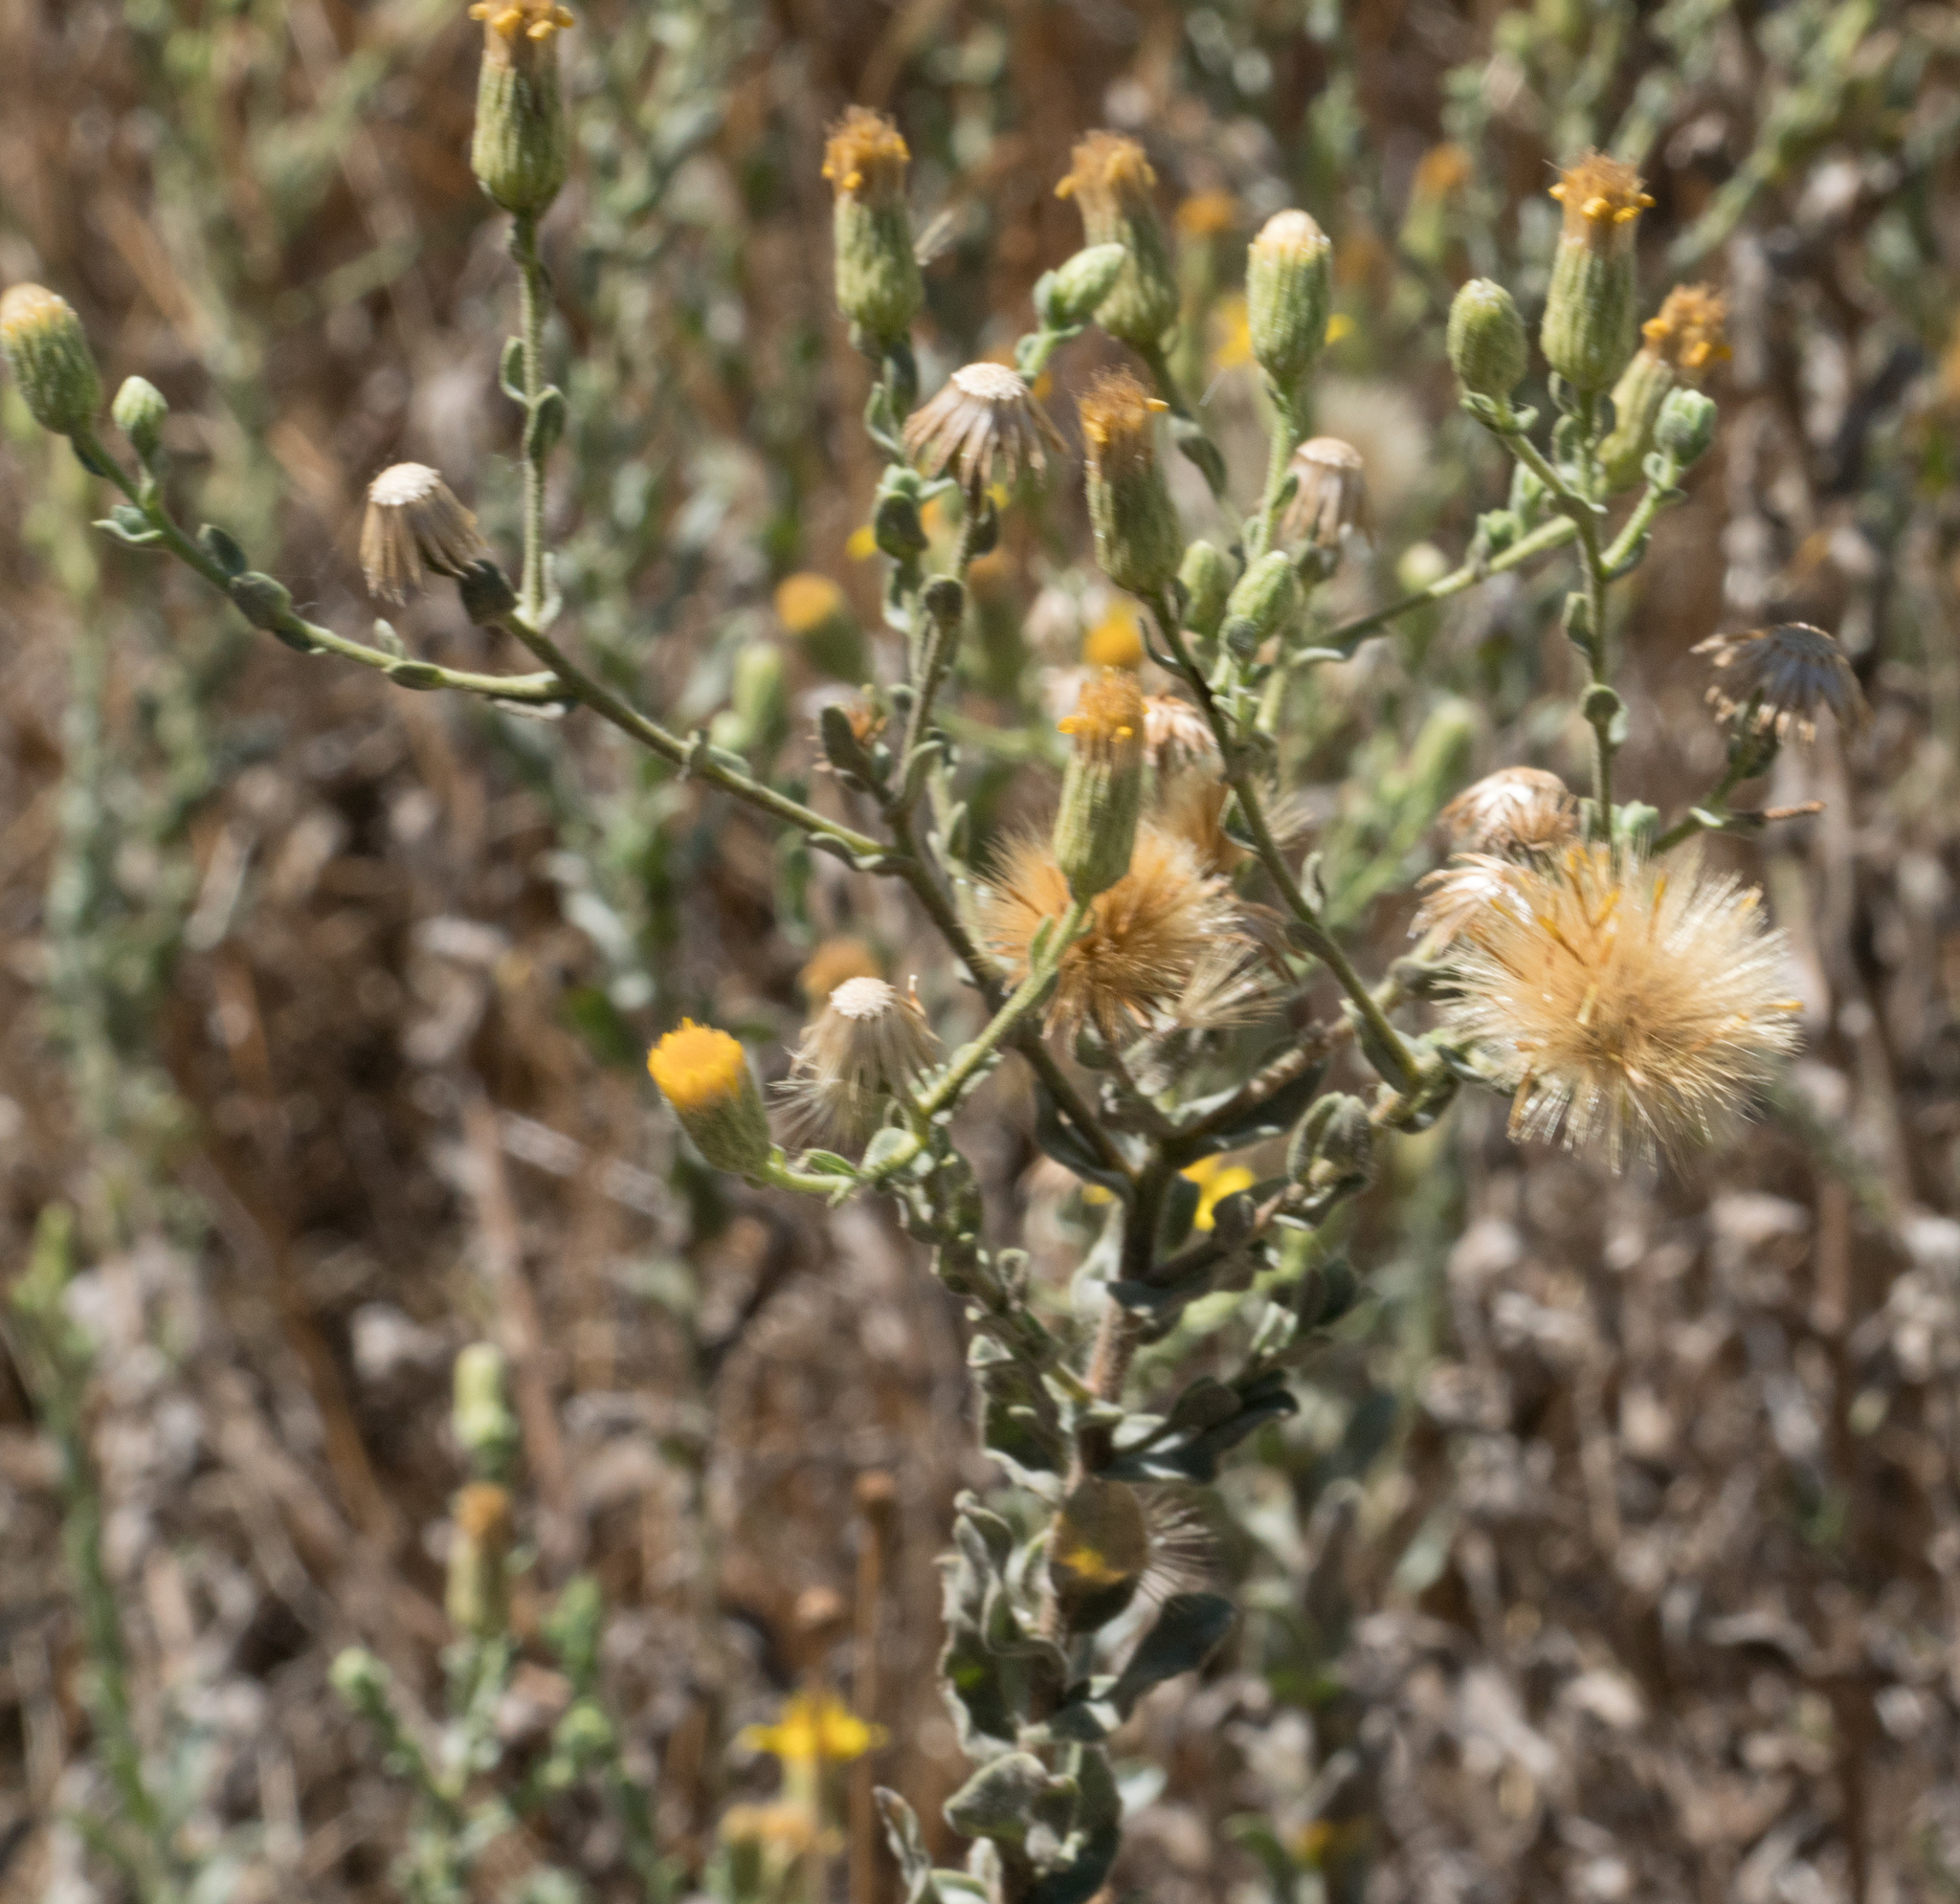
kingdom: Plantae
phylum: Tracheophyta
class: Magnoliopsida
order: Asterales
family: Asteraceae
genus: Heterotheca
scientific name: Heterotheca sessiliflora
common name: Sessile-flower golden-aster
